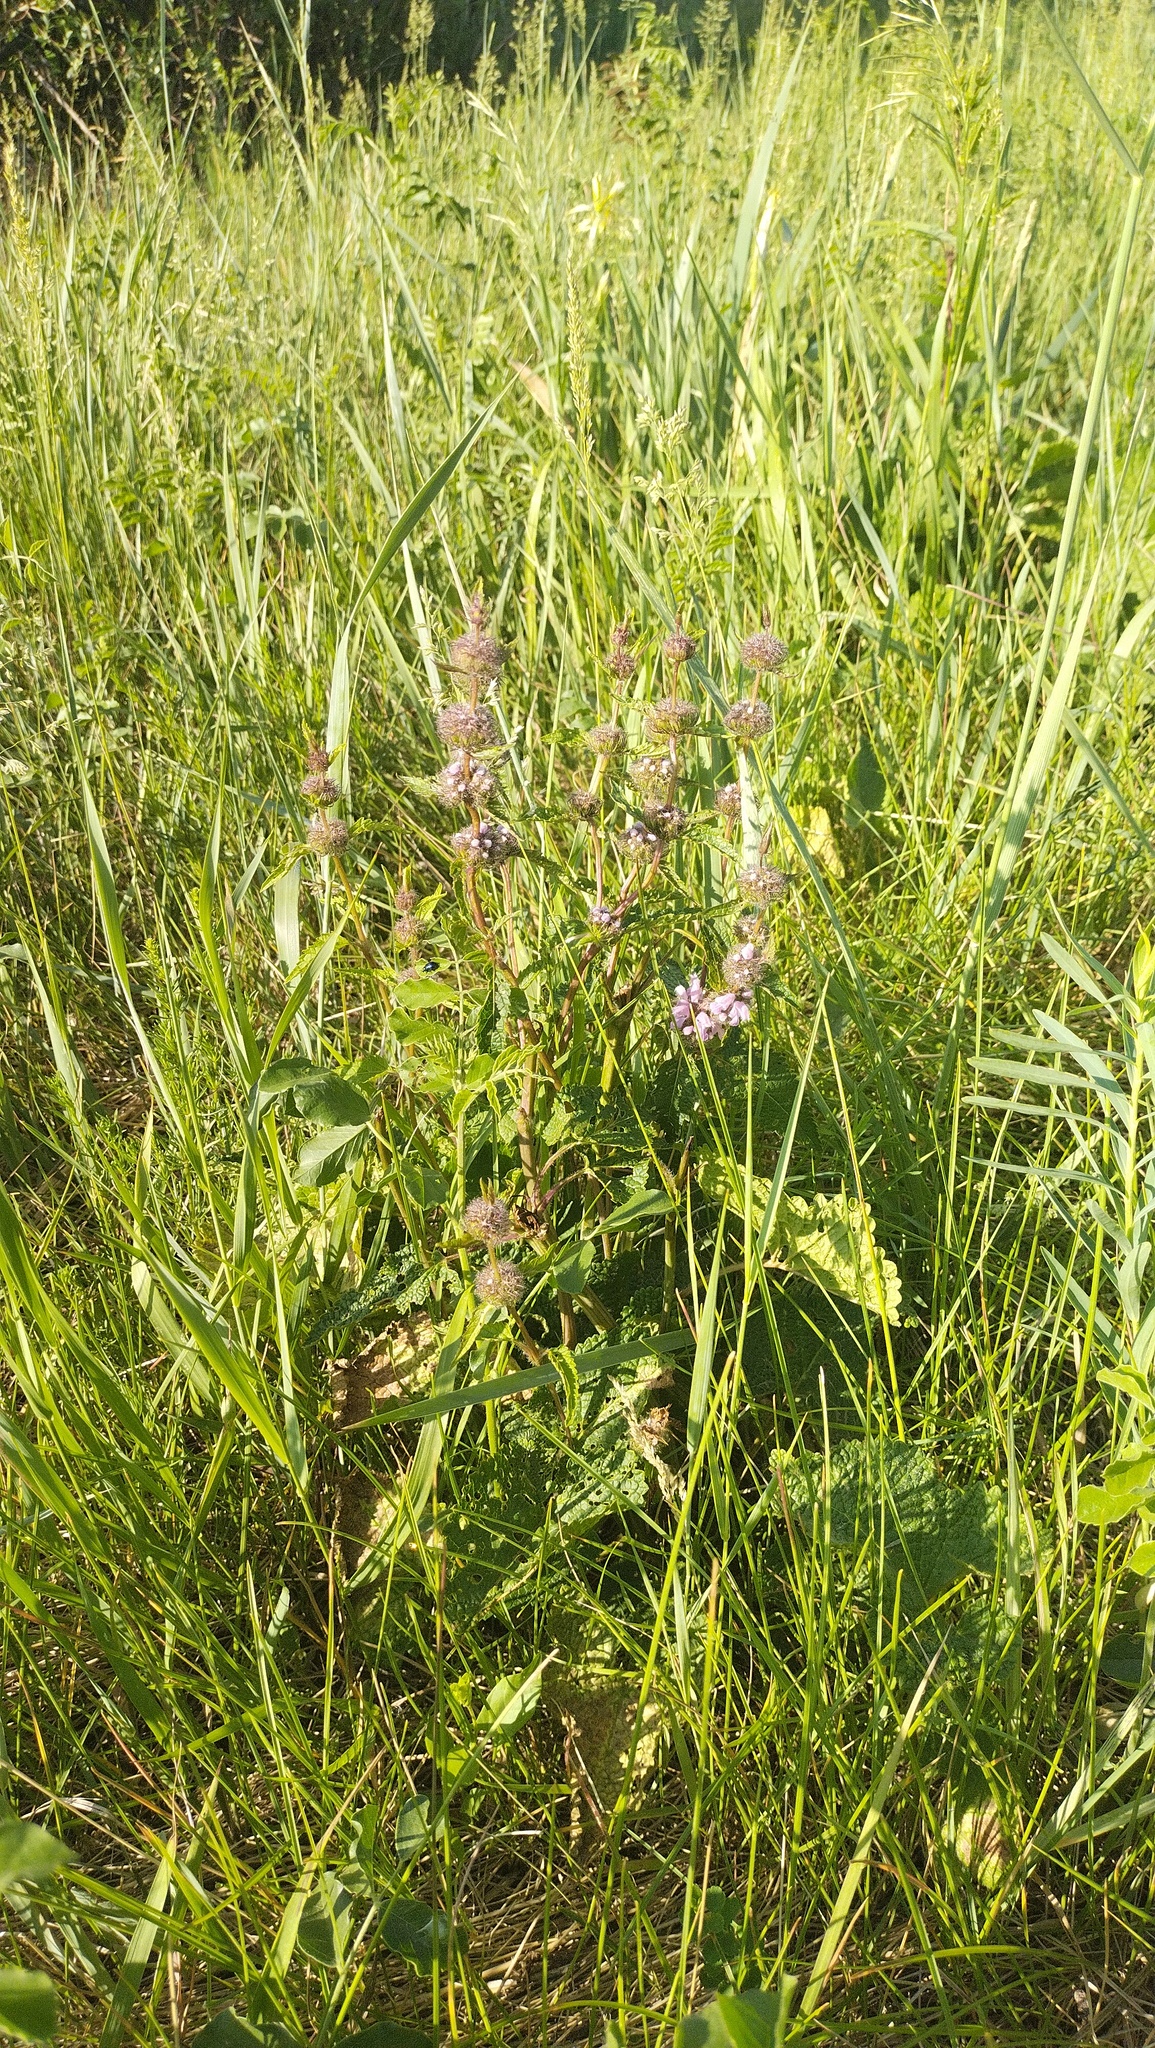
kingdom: Plantae
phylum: Tracheophyta
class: Magnoliopsida
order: Lamiales
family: Lamiaceae
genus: Phlomoides
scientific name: Phlomoides tuberosa
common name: Tuberous jerusalem sage
